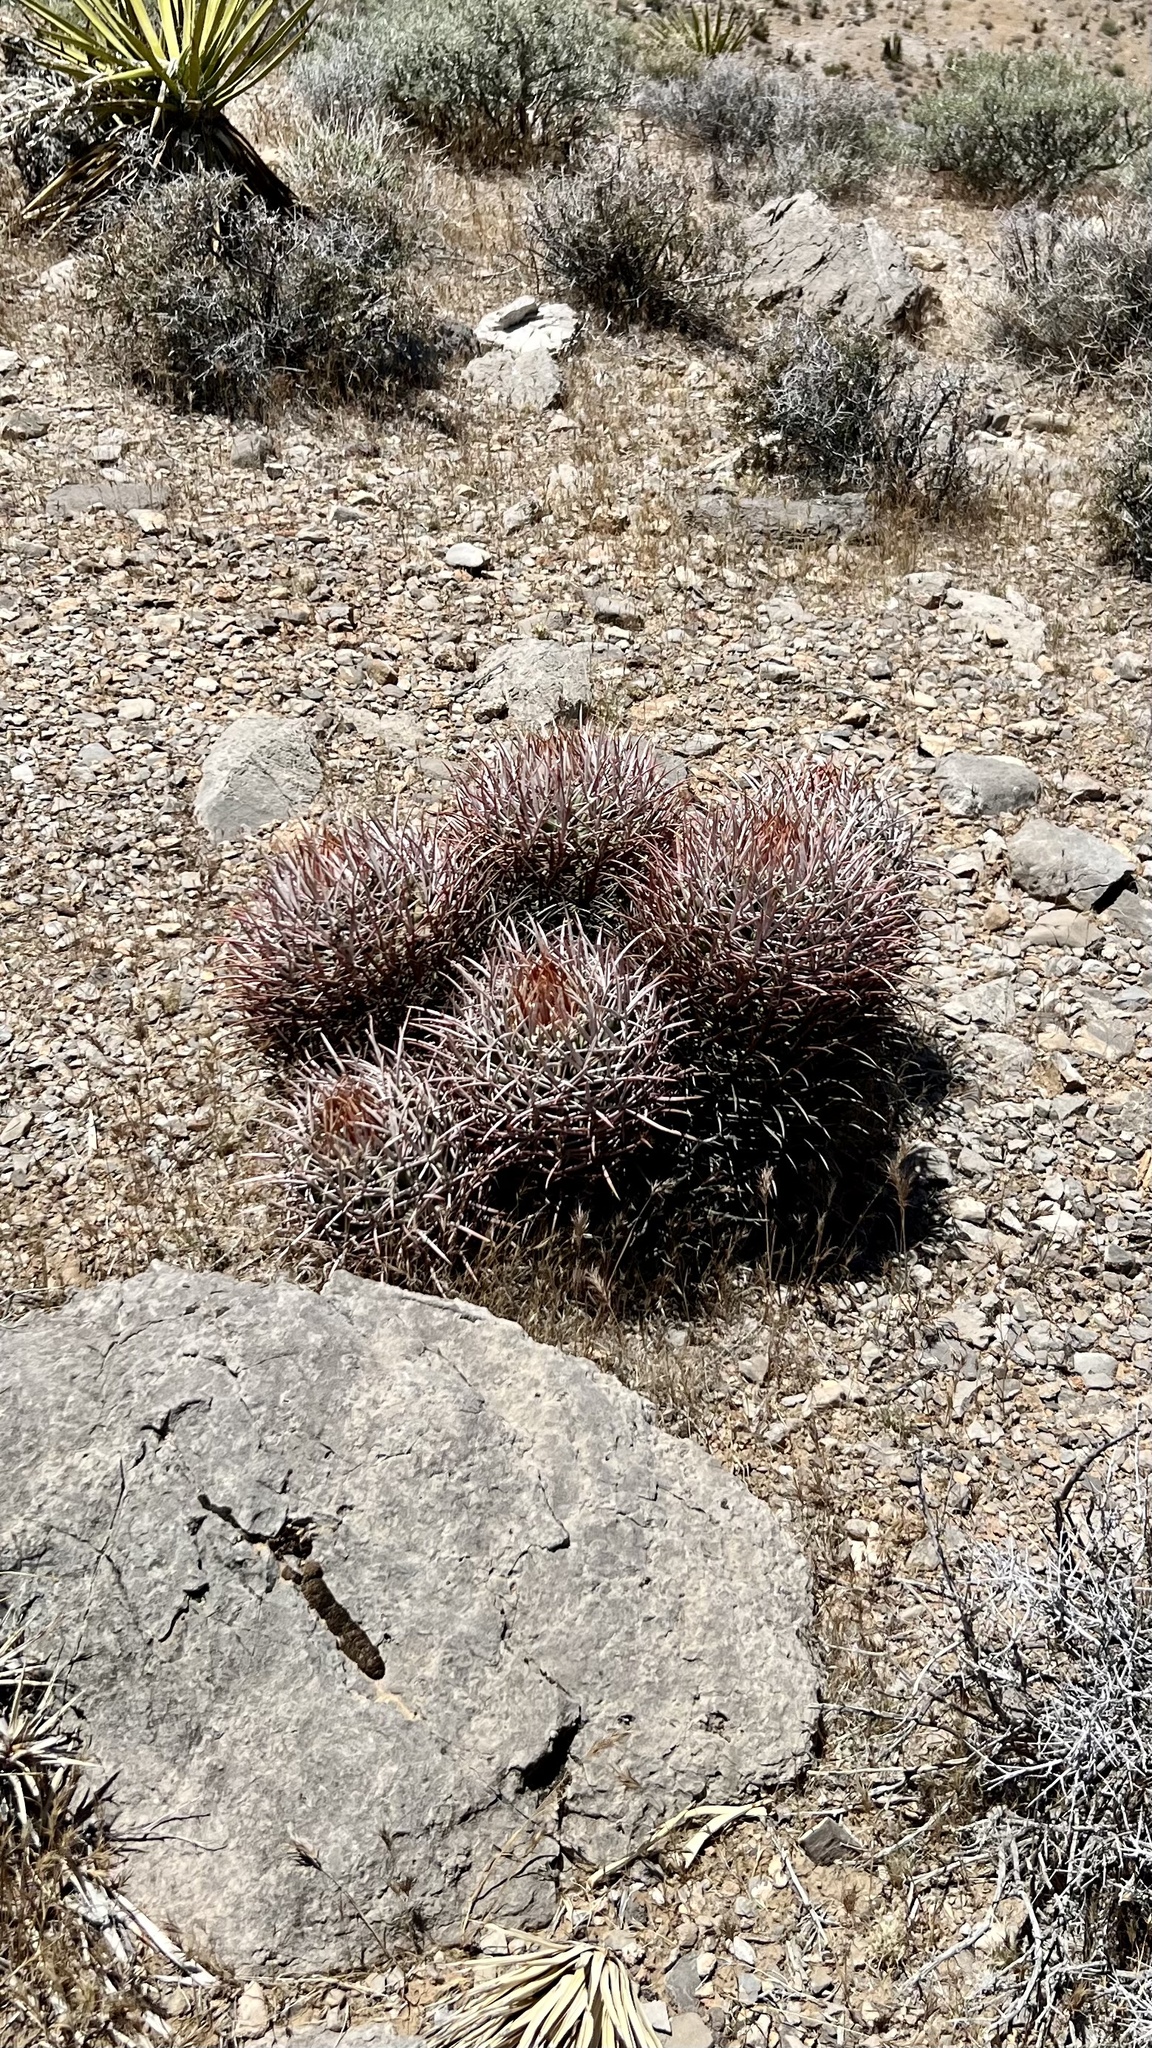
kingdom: Plantae
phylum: Tracheophyta
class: Magnoliopsida
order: Caryophyllales
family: Cactaceae
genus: Echinocactus
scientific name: Echinocactus polycephalus
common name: Cottontop cactus
